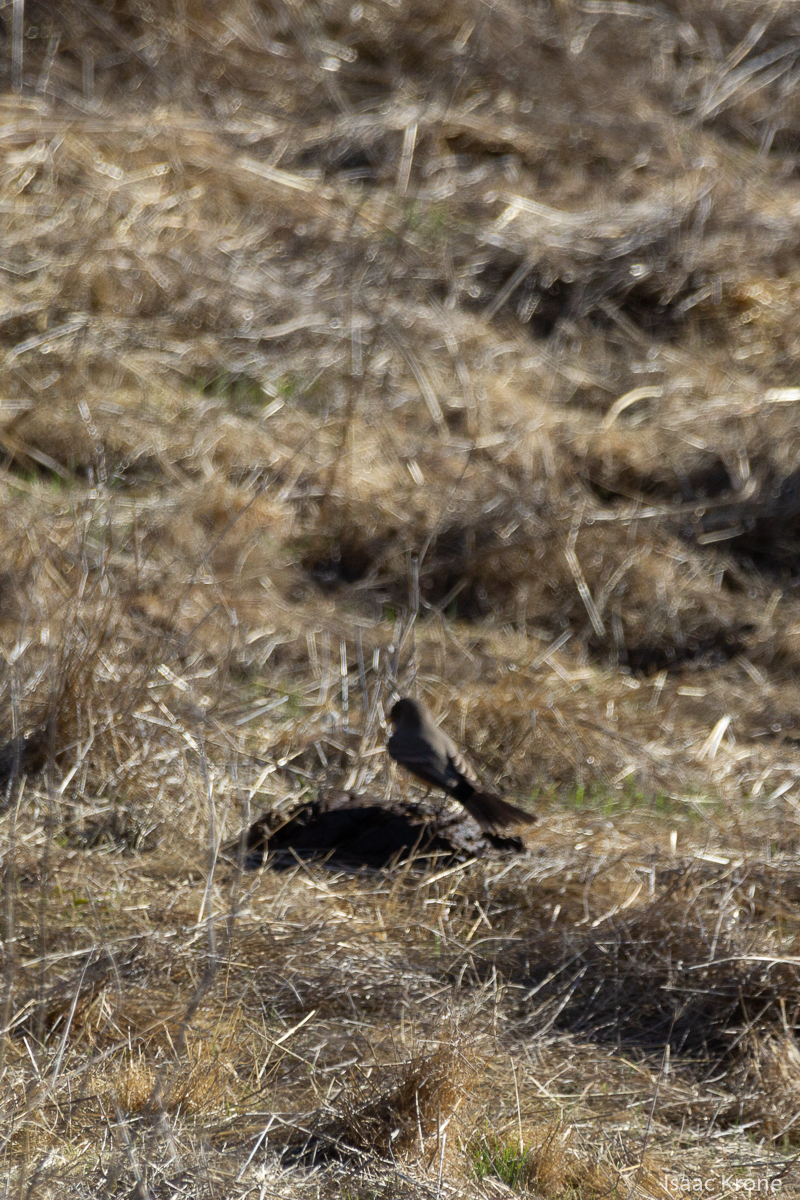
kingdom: Animalia
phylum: Chordata
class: Aves
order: Passeriformes
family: Tyrannidae
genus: Sayornis
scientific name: Sayornis saya
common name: Say's phoebe
